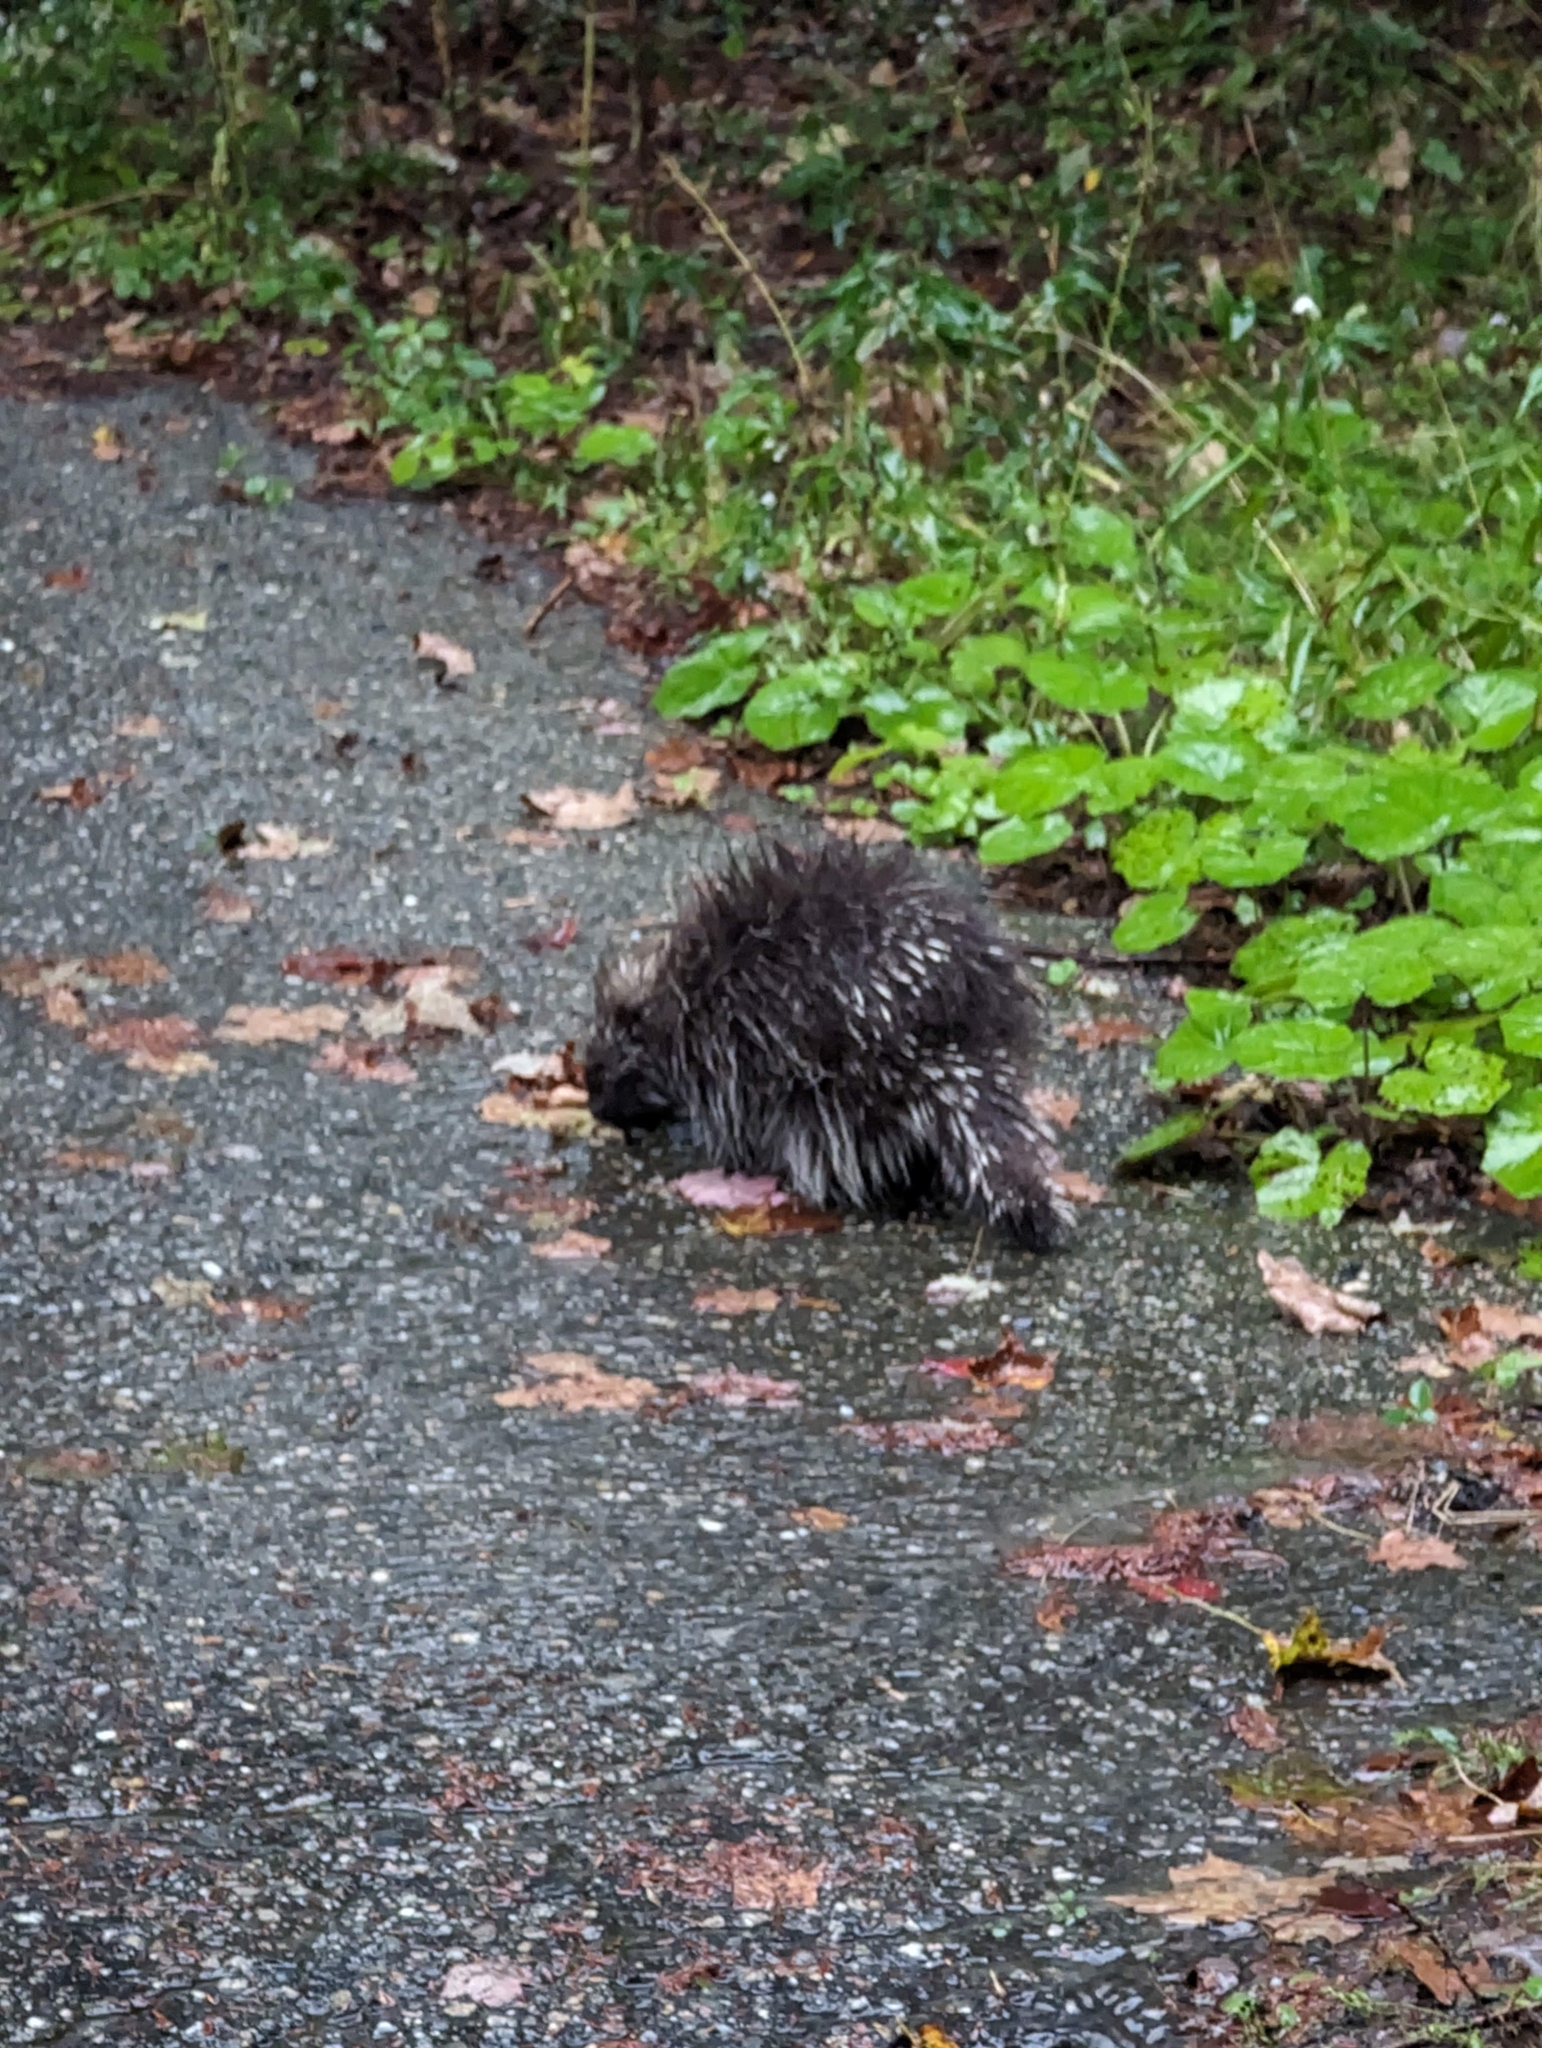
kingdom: Animalia
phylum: Chordata
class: Mammalia
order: Rodentia
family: Erethizontidae
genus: Erethizon
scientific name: Erethizon dorsatus
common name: North american porcupine
